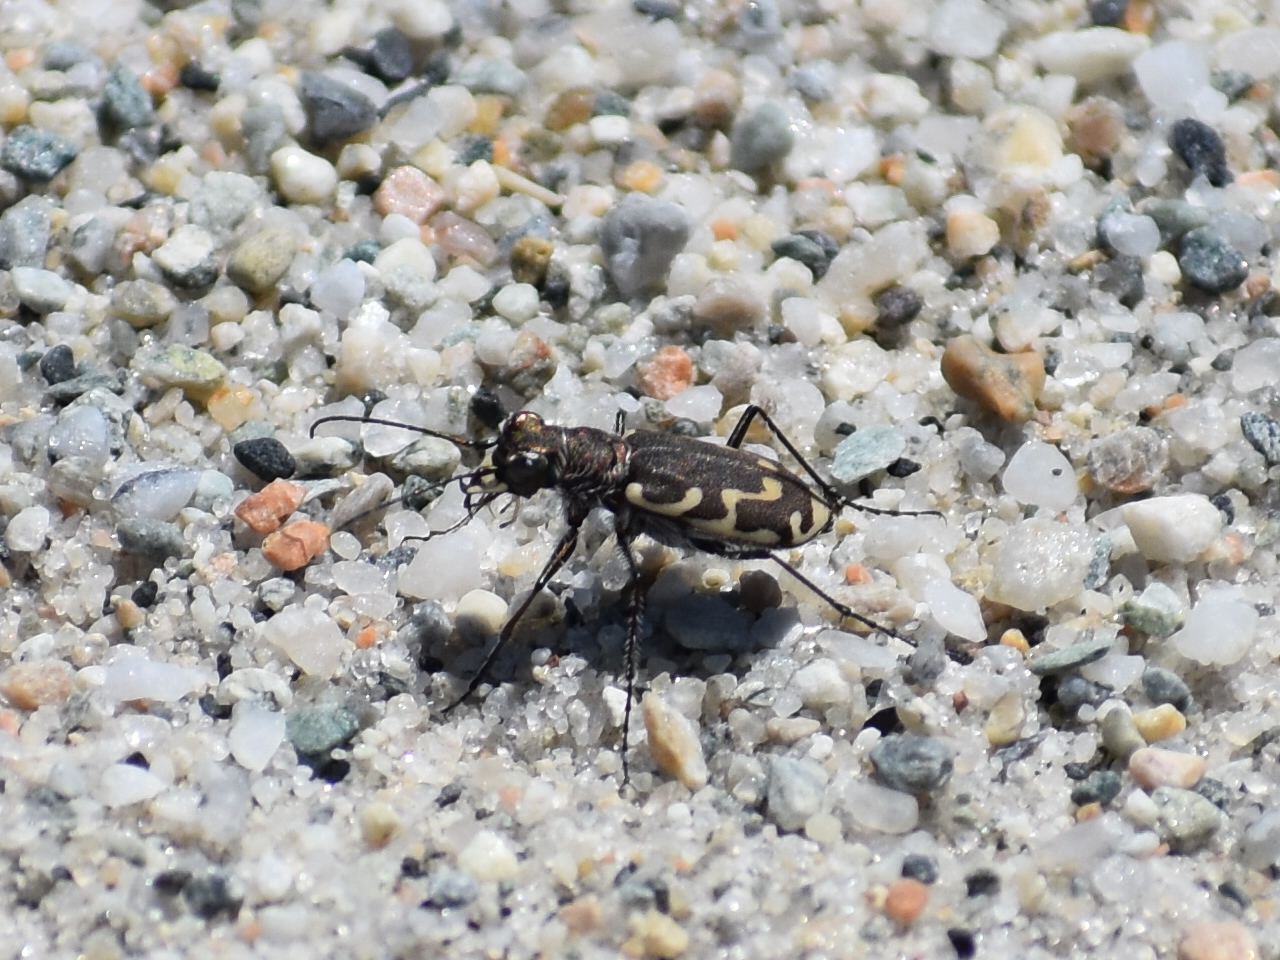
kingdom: Animalia
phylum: Arthropoda
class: Insecta
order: Coleoptera
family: Carabidae
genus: Cicindela
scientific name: Cicindela repanda
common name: Bronzed tiger beetle
